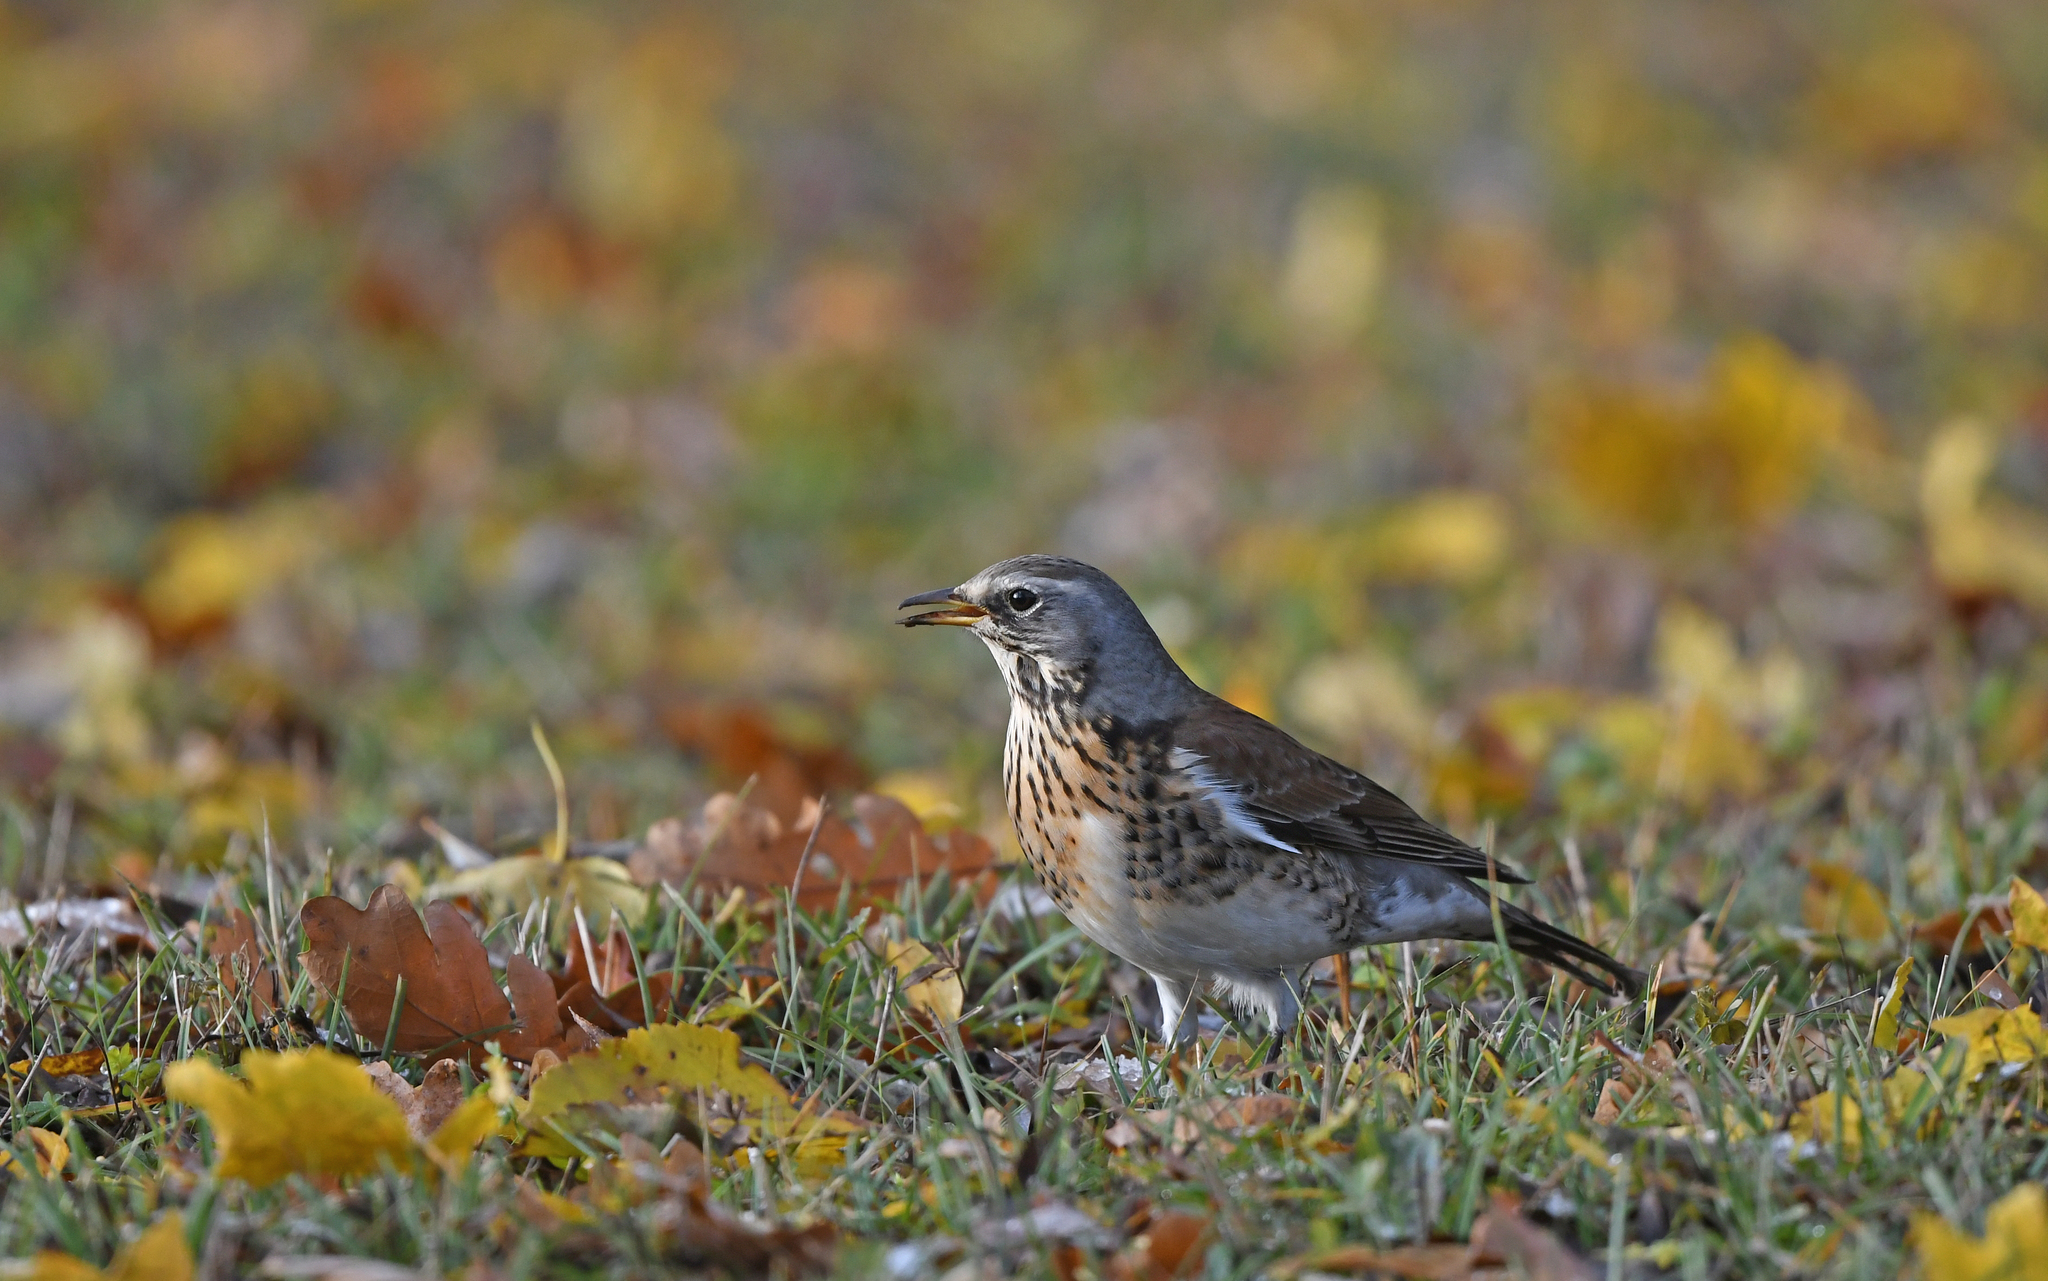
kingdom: Animalia
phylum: Chordata
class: Aves
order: Passeriformes
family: Turdidae
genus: Turdus
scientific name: Turdus pilaris
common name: Fieldfare
